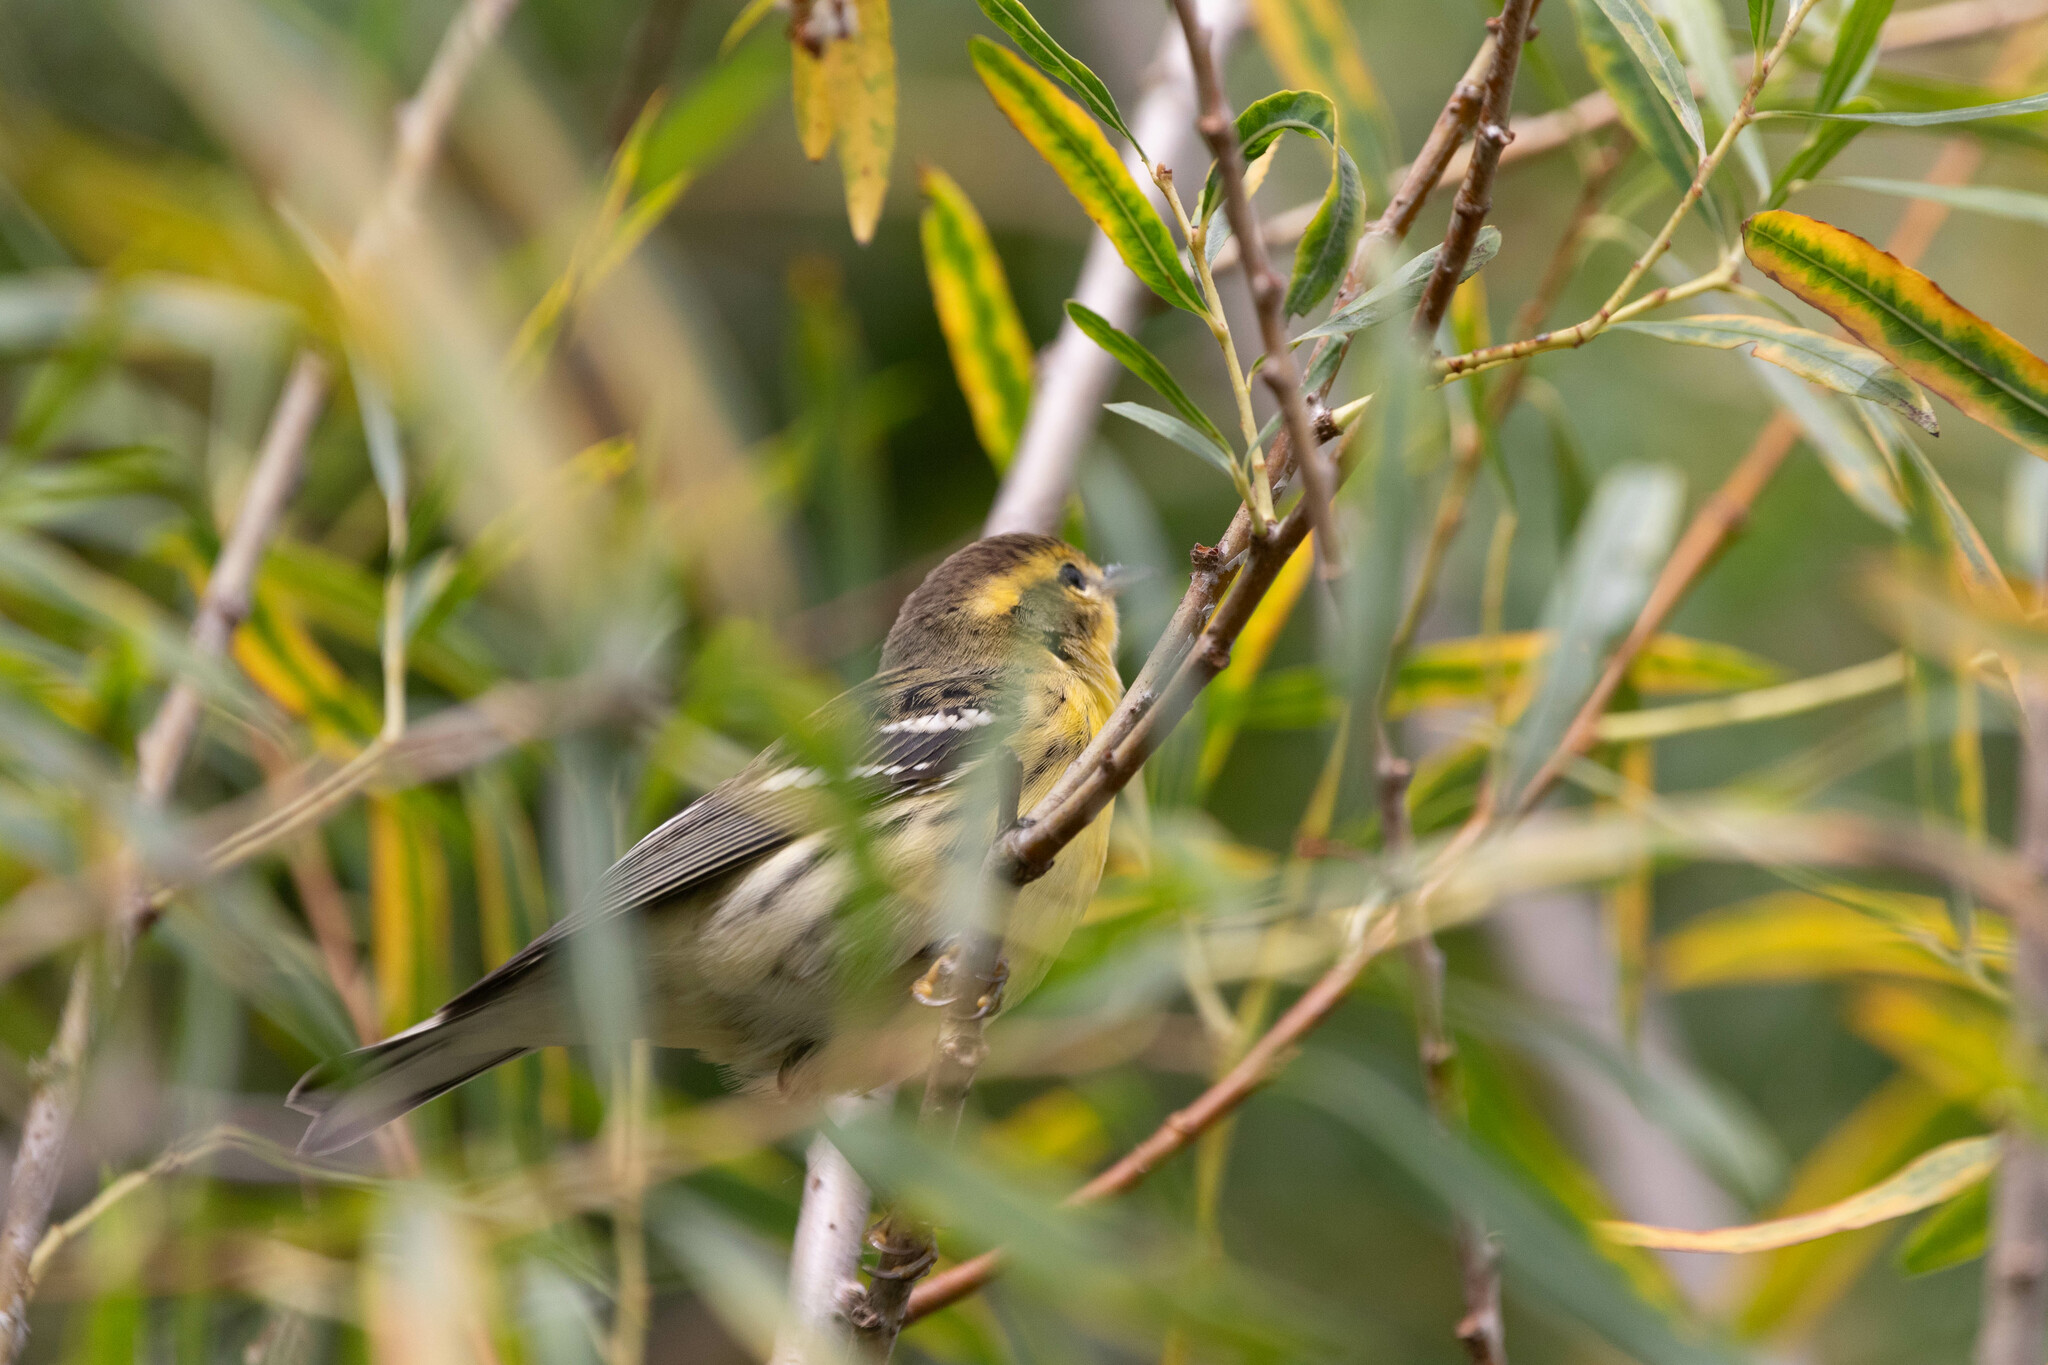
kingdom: Animalia
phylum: Chordata
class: Aves
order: Passeriformes
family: Parulidae
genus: Setophaga
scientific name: Setophaga fusca
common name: Blackburnian warbler
